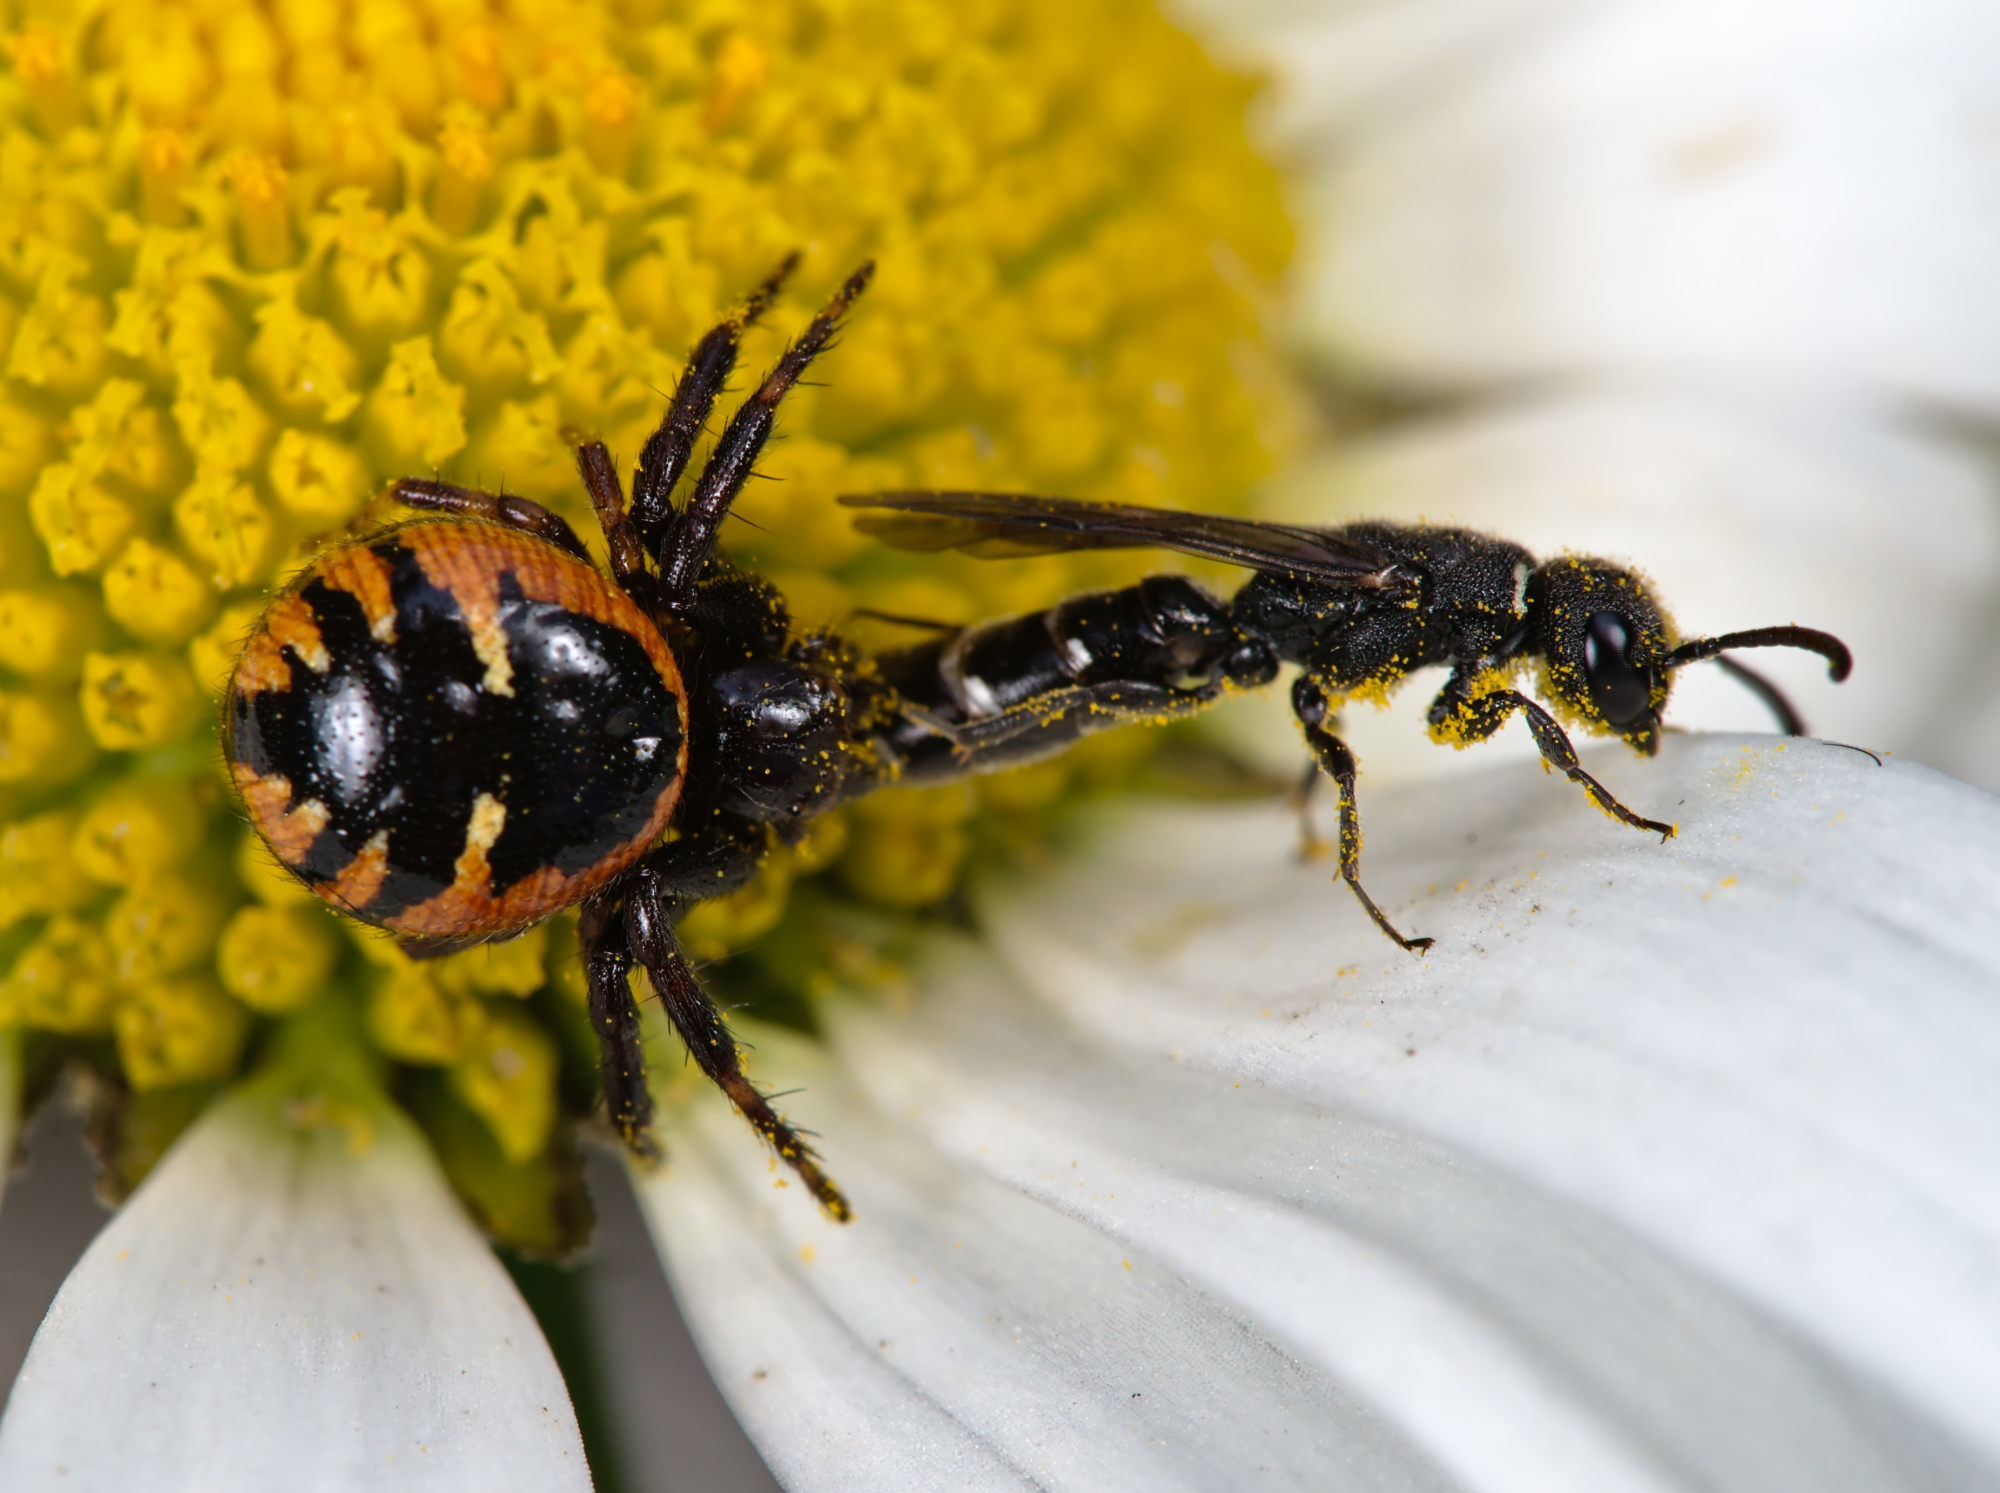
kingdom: Animalia
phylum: Arthropoda
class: Insecta
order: Hymenoptera
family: Sapygidae
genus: Sapygina
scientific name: Sapygina decemguttata
